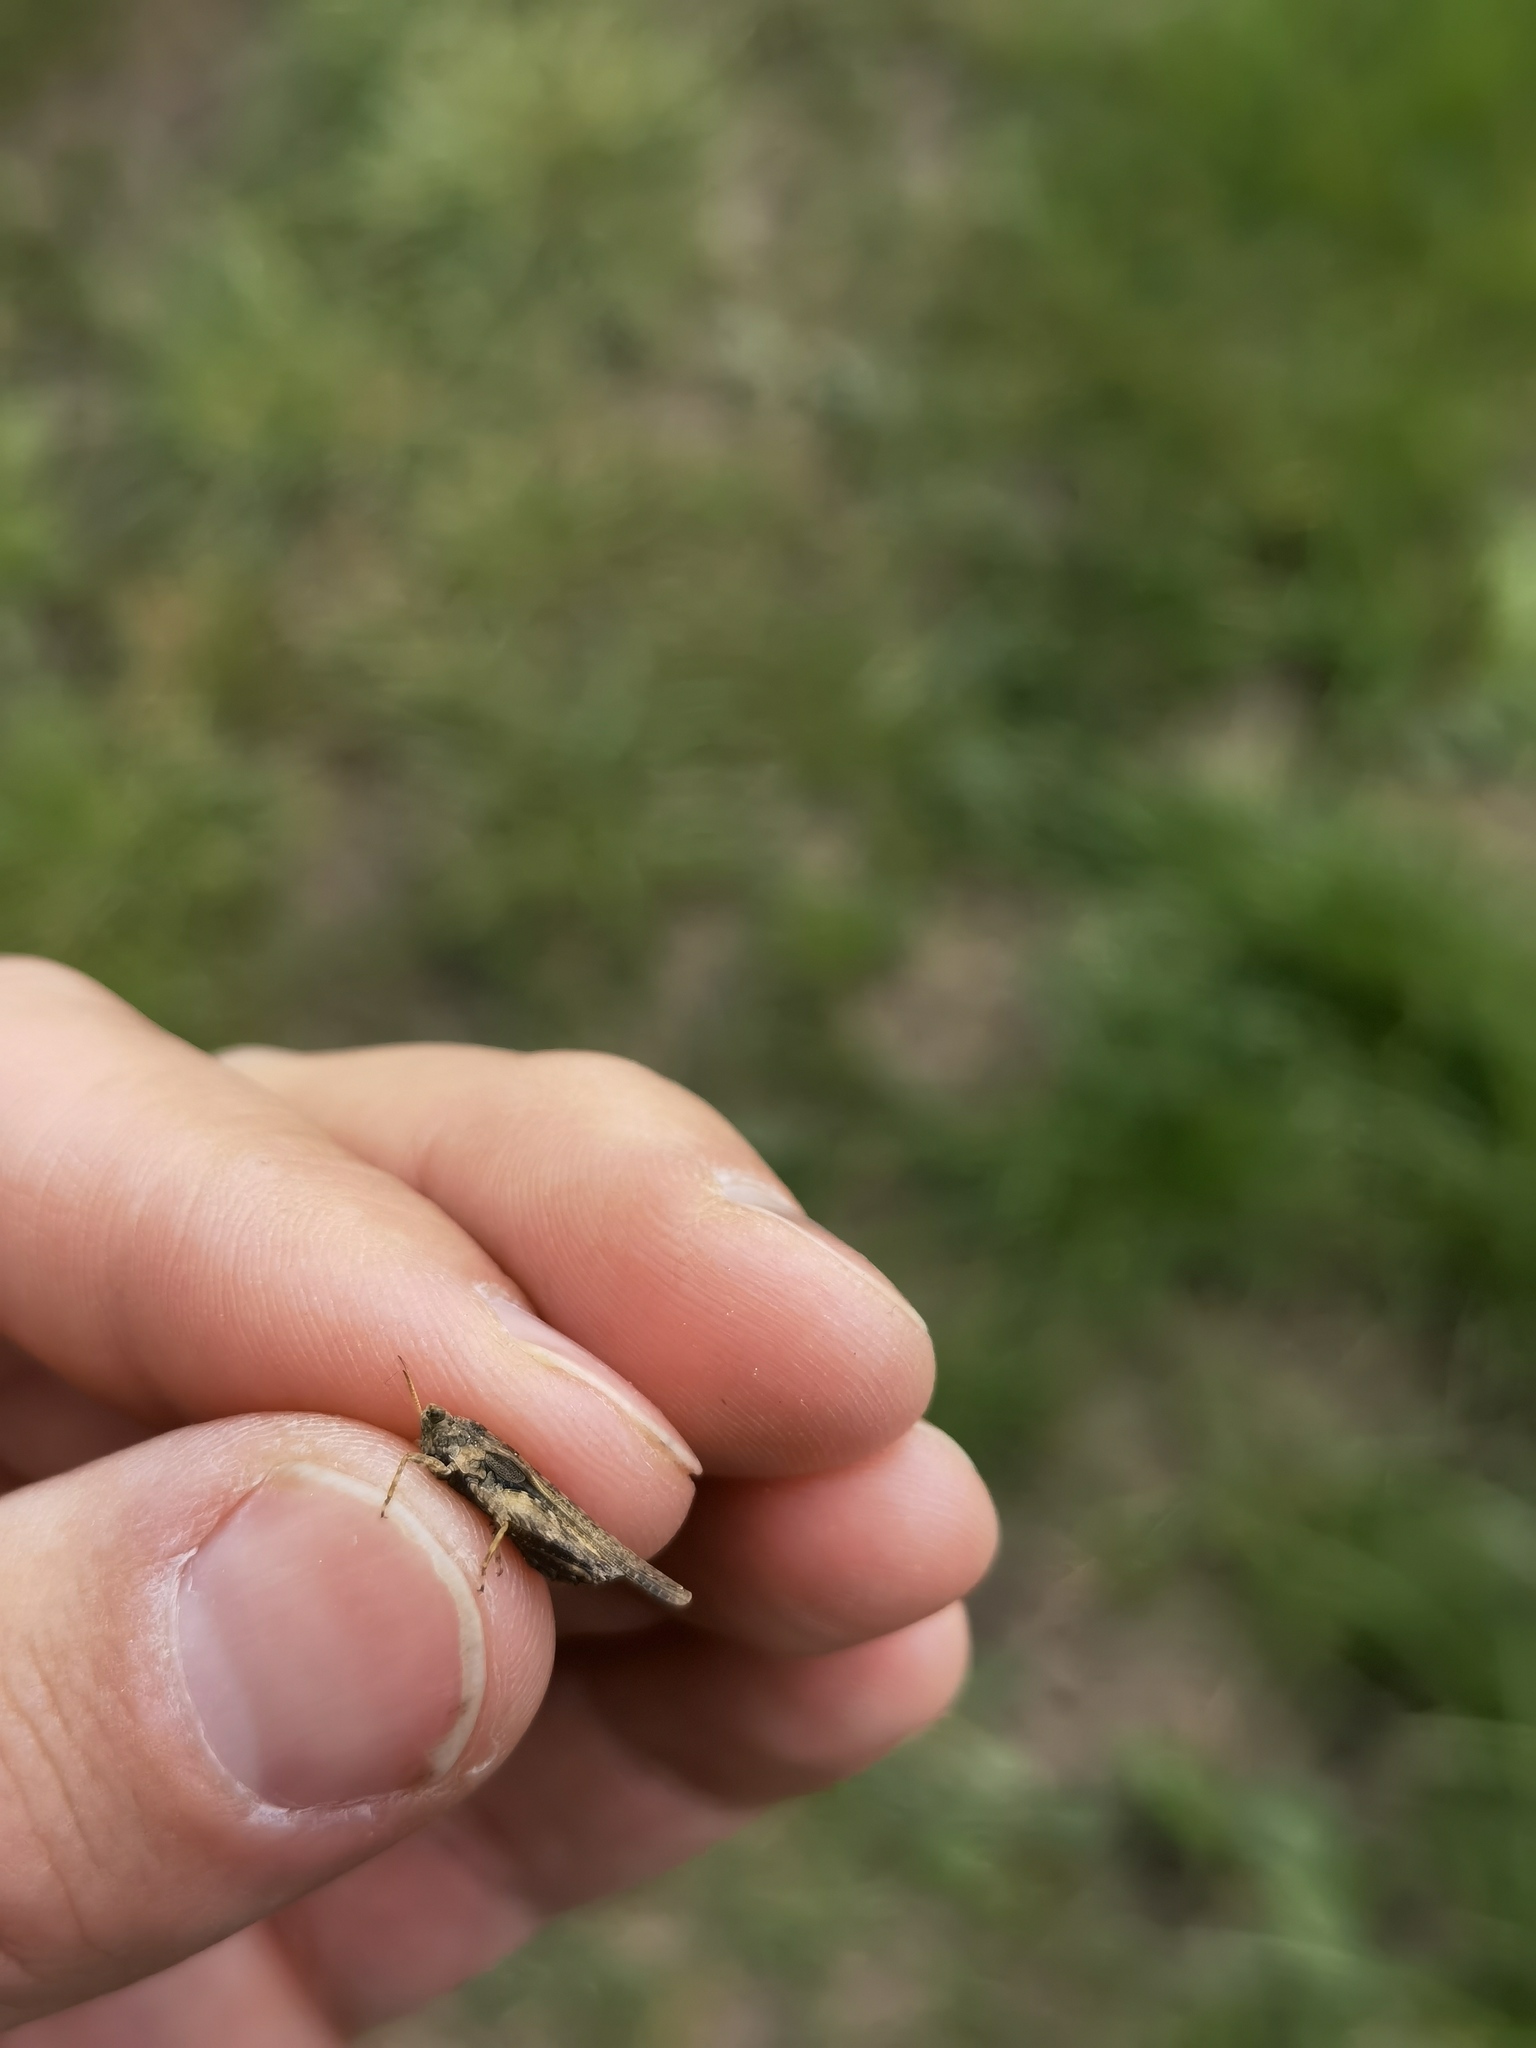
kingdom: Animalia
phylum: Arthropoda
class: Insecta
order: Orthoptera
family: Tetrigidae
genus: Tetrix
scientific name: Tetrix subulata
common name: Slender ground-hopper
